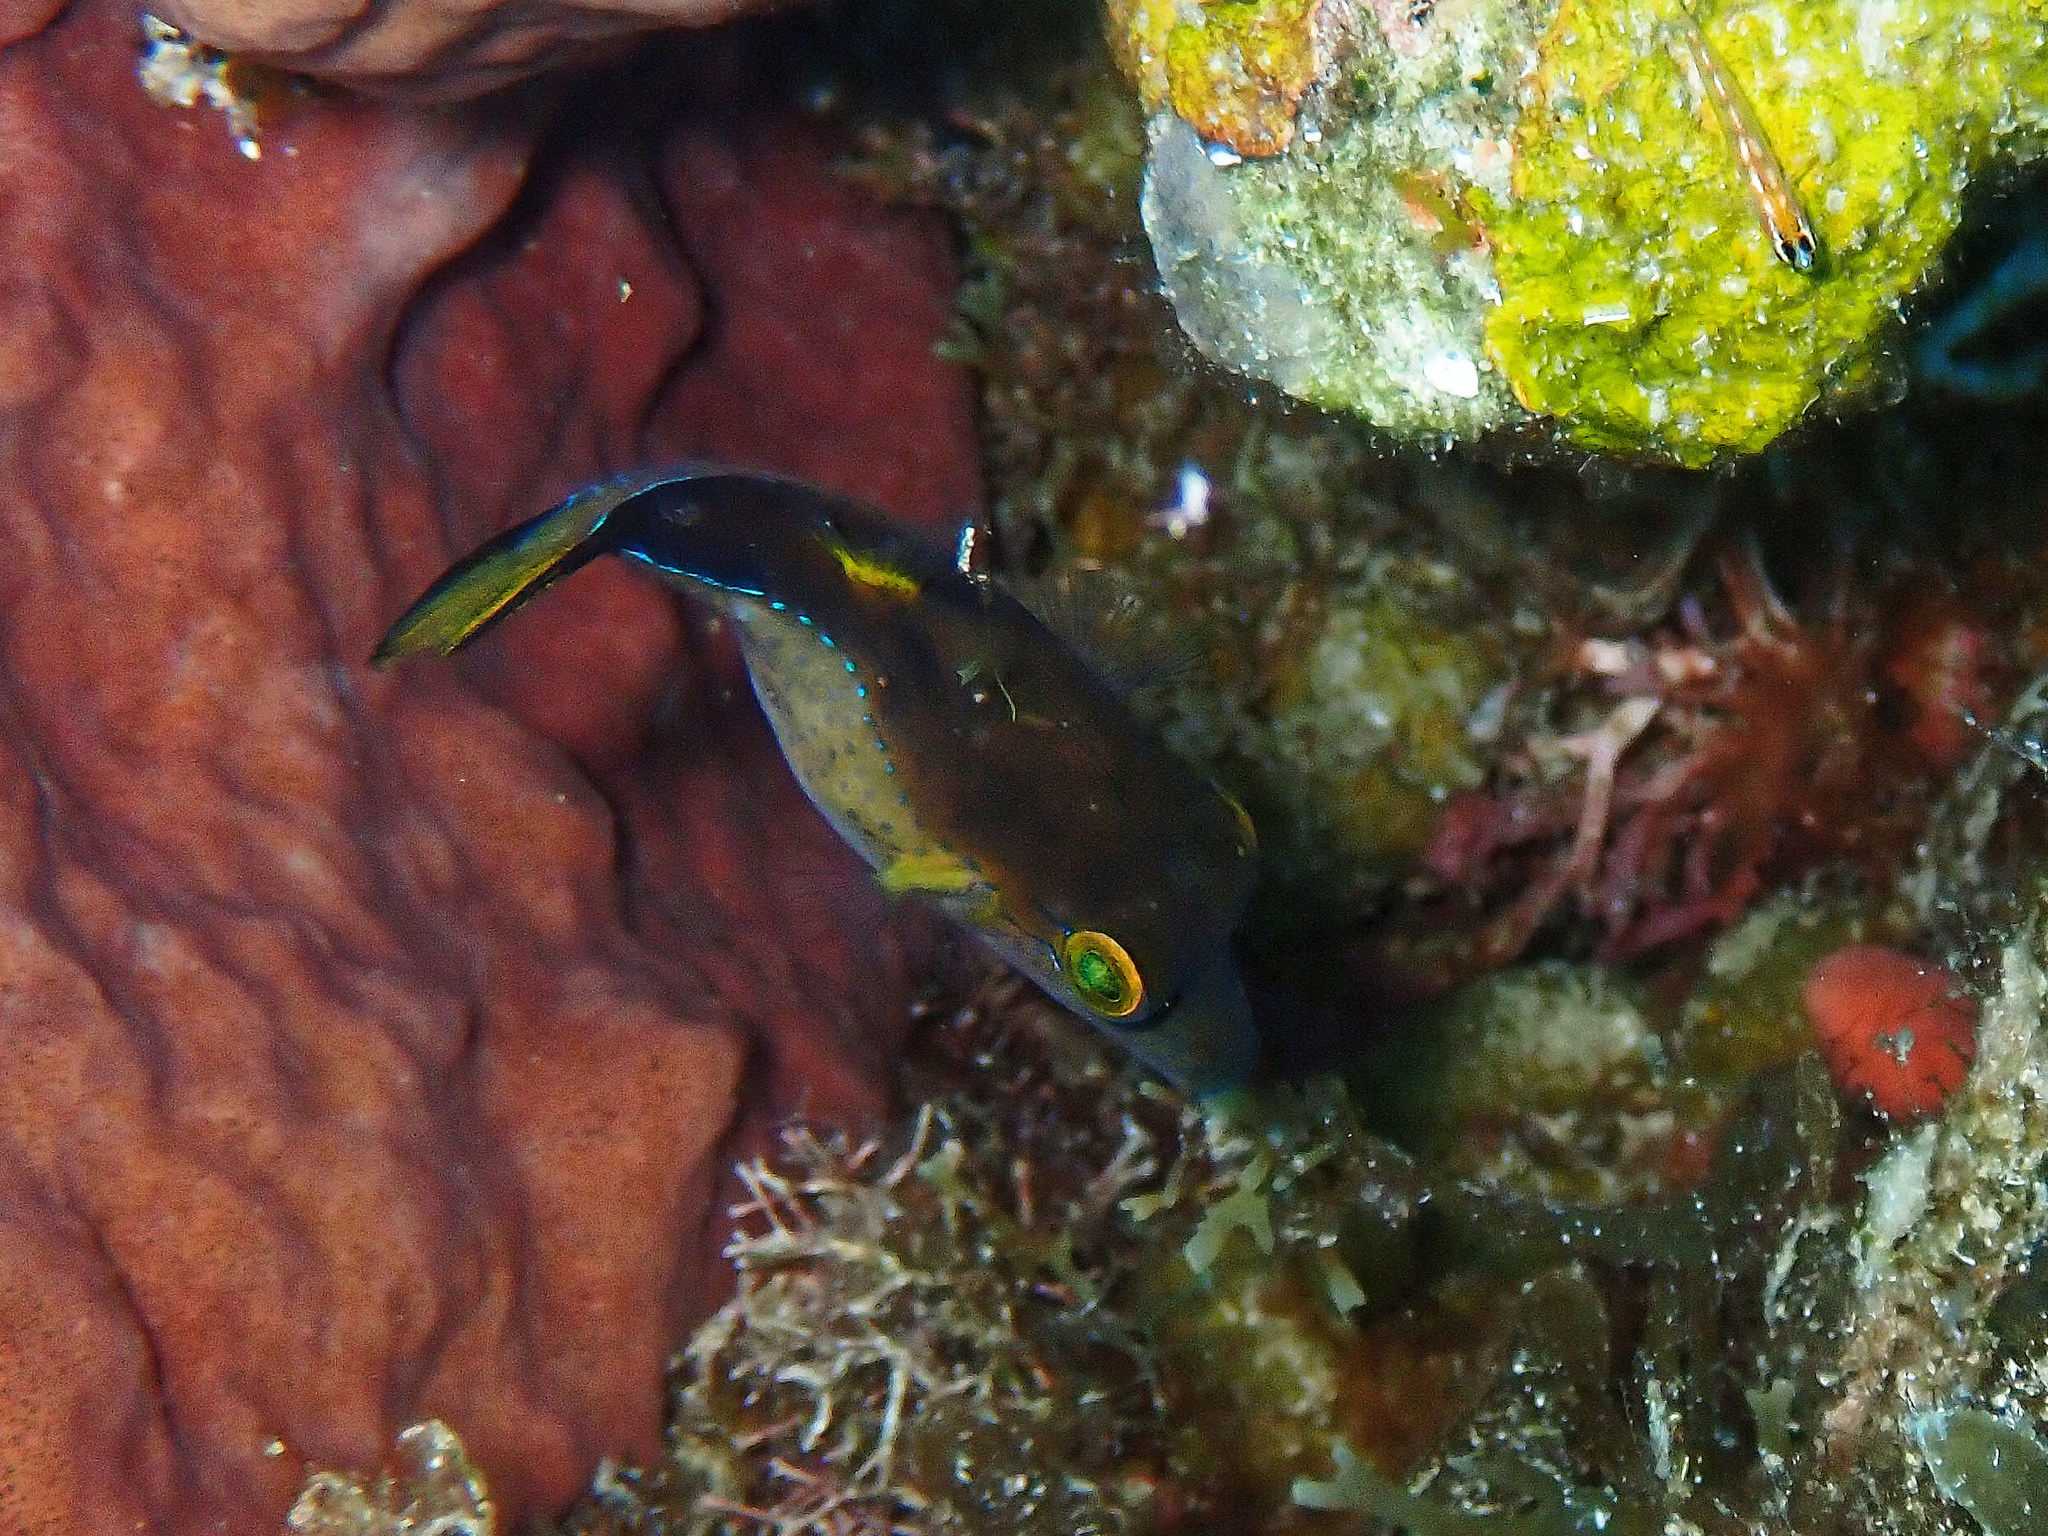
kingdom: Animalia
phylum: Chordata
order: Tetraodontiformes
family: Tetraodontidae
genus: Canthigaster
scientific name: Canthigaster rostrata
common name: Caribbean sharpnose-puffer
